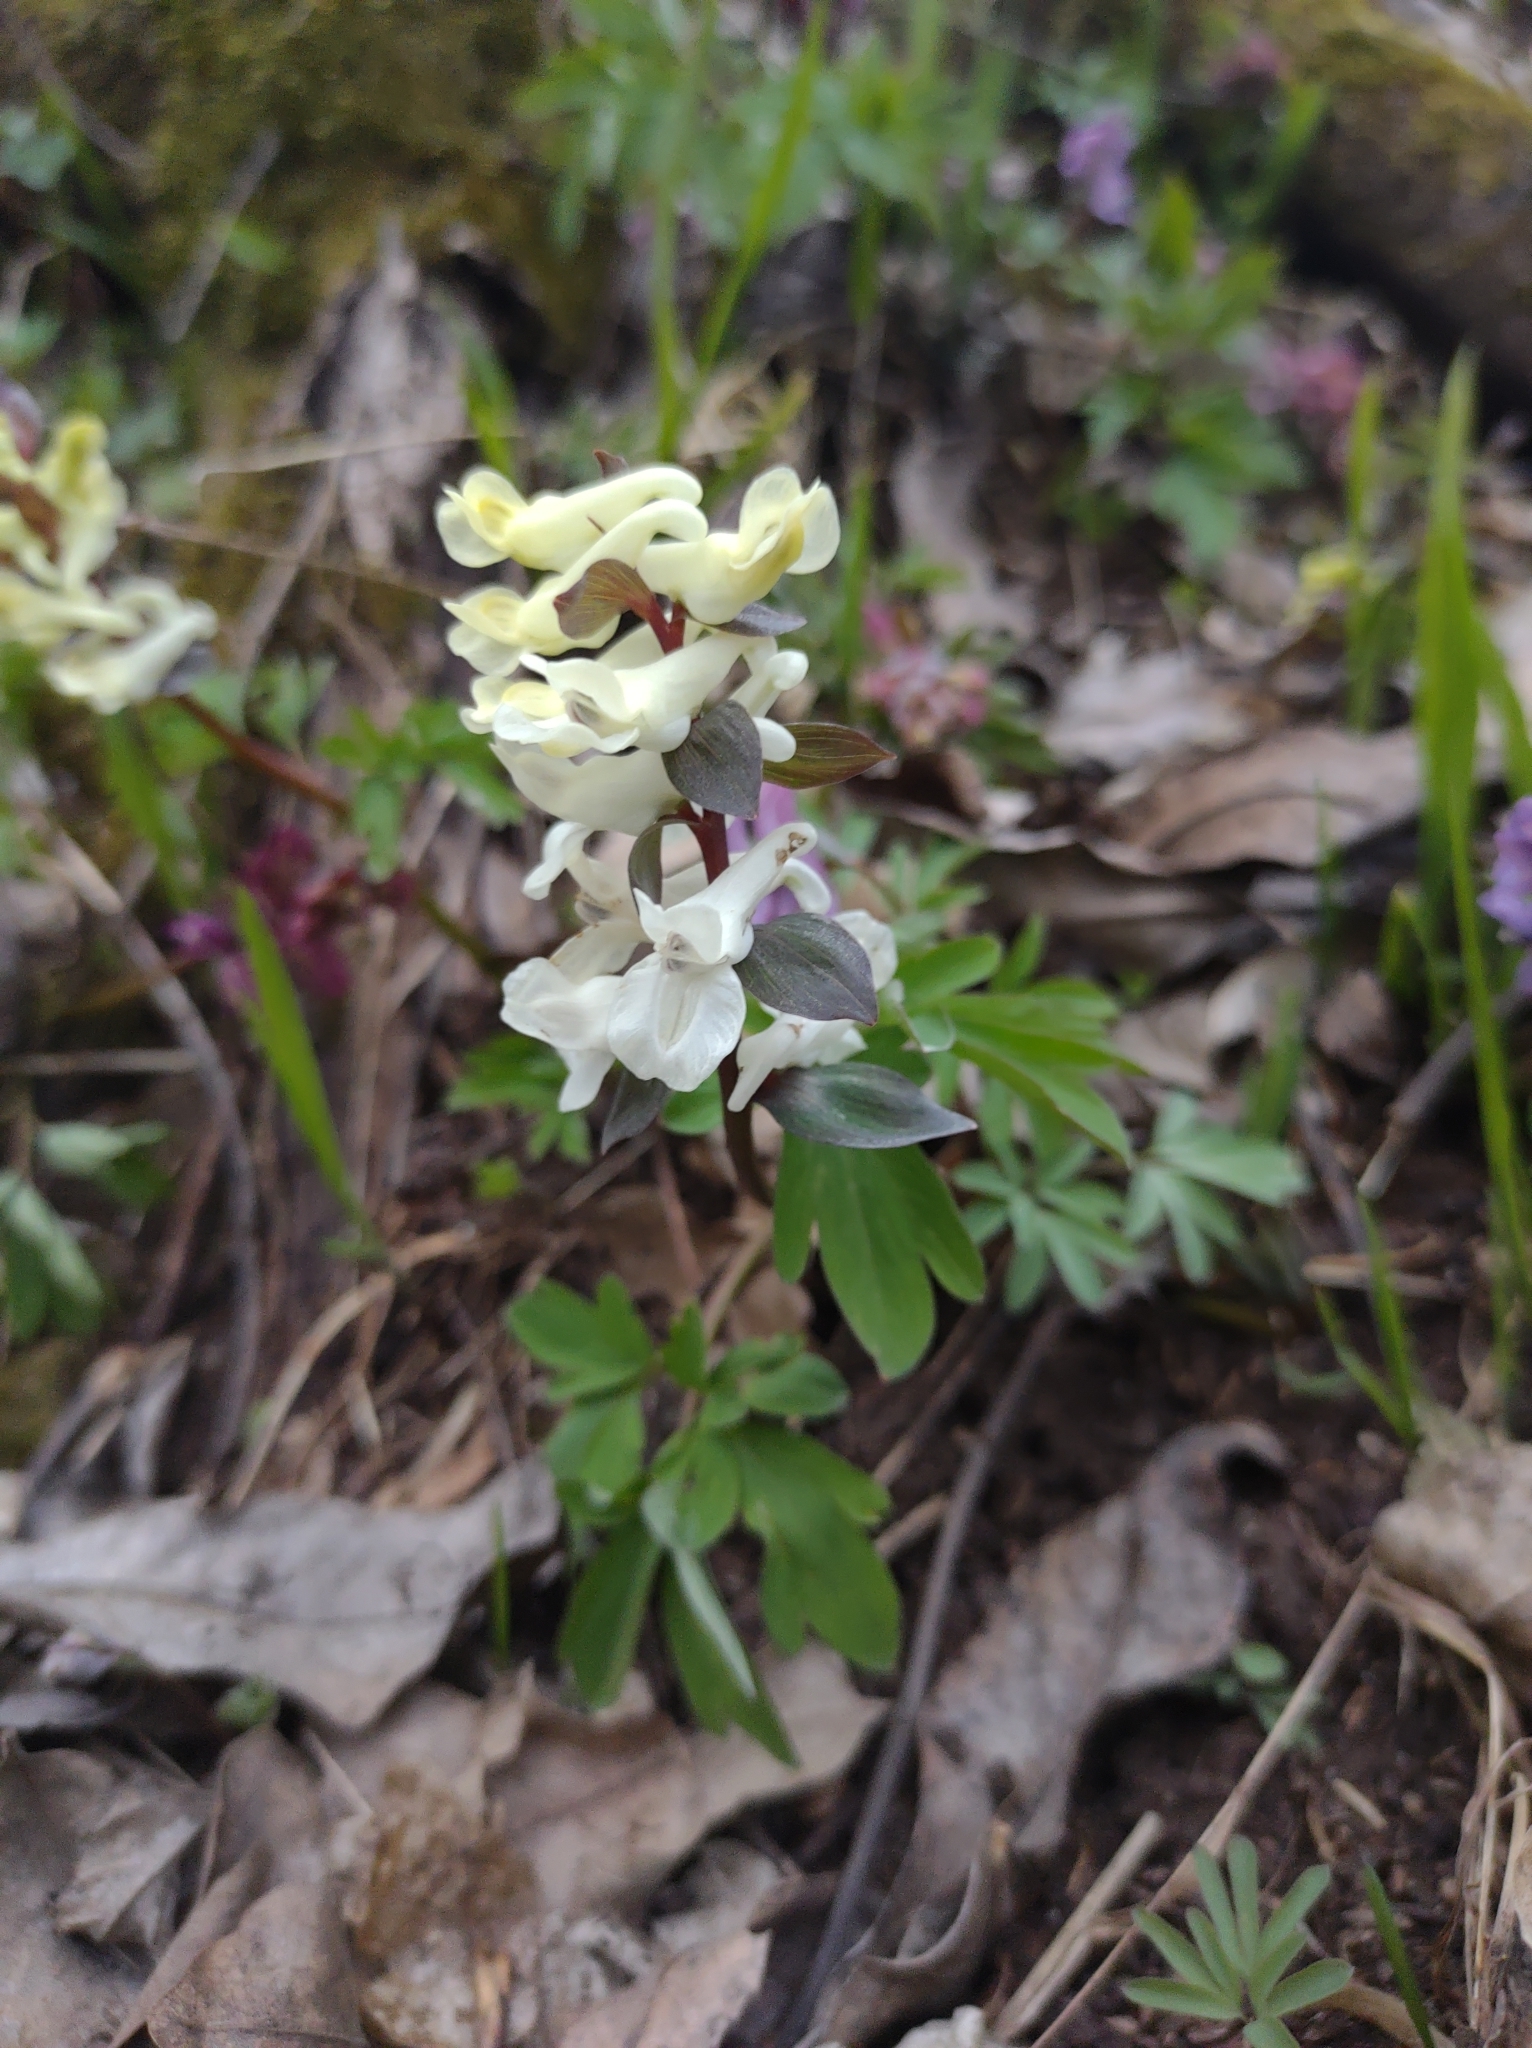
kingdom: Plantae
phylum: Tracheophyta
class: Magnoliopsida
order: Ranunculales
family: Papaveraceae
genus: Corydalis
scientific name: Corydalis cava
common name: Hollowroot
